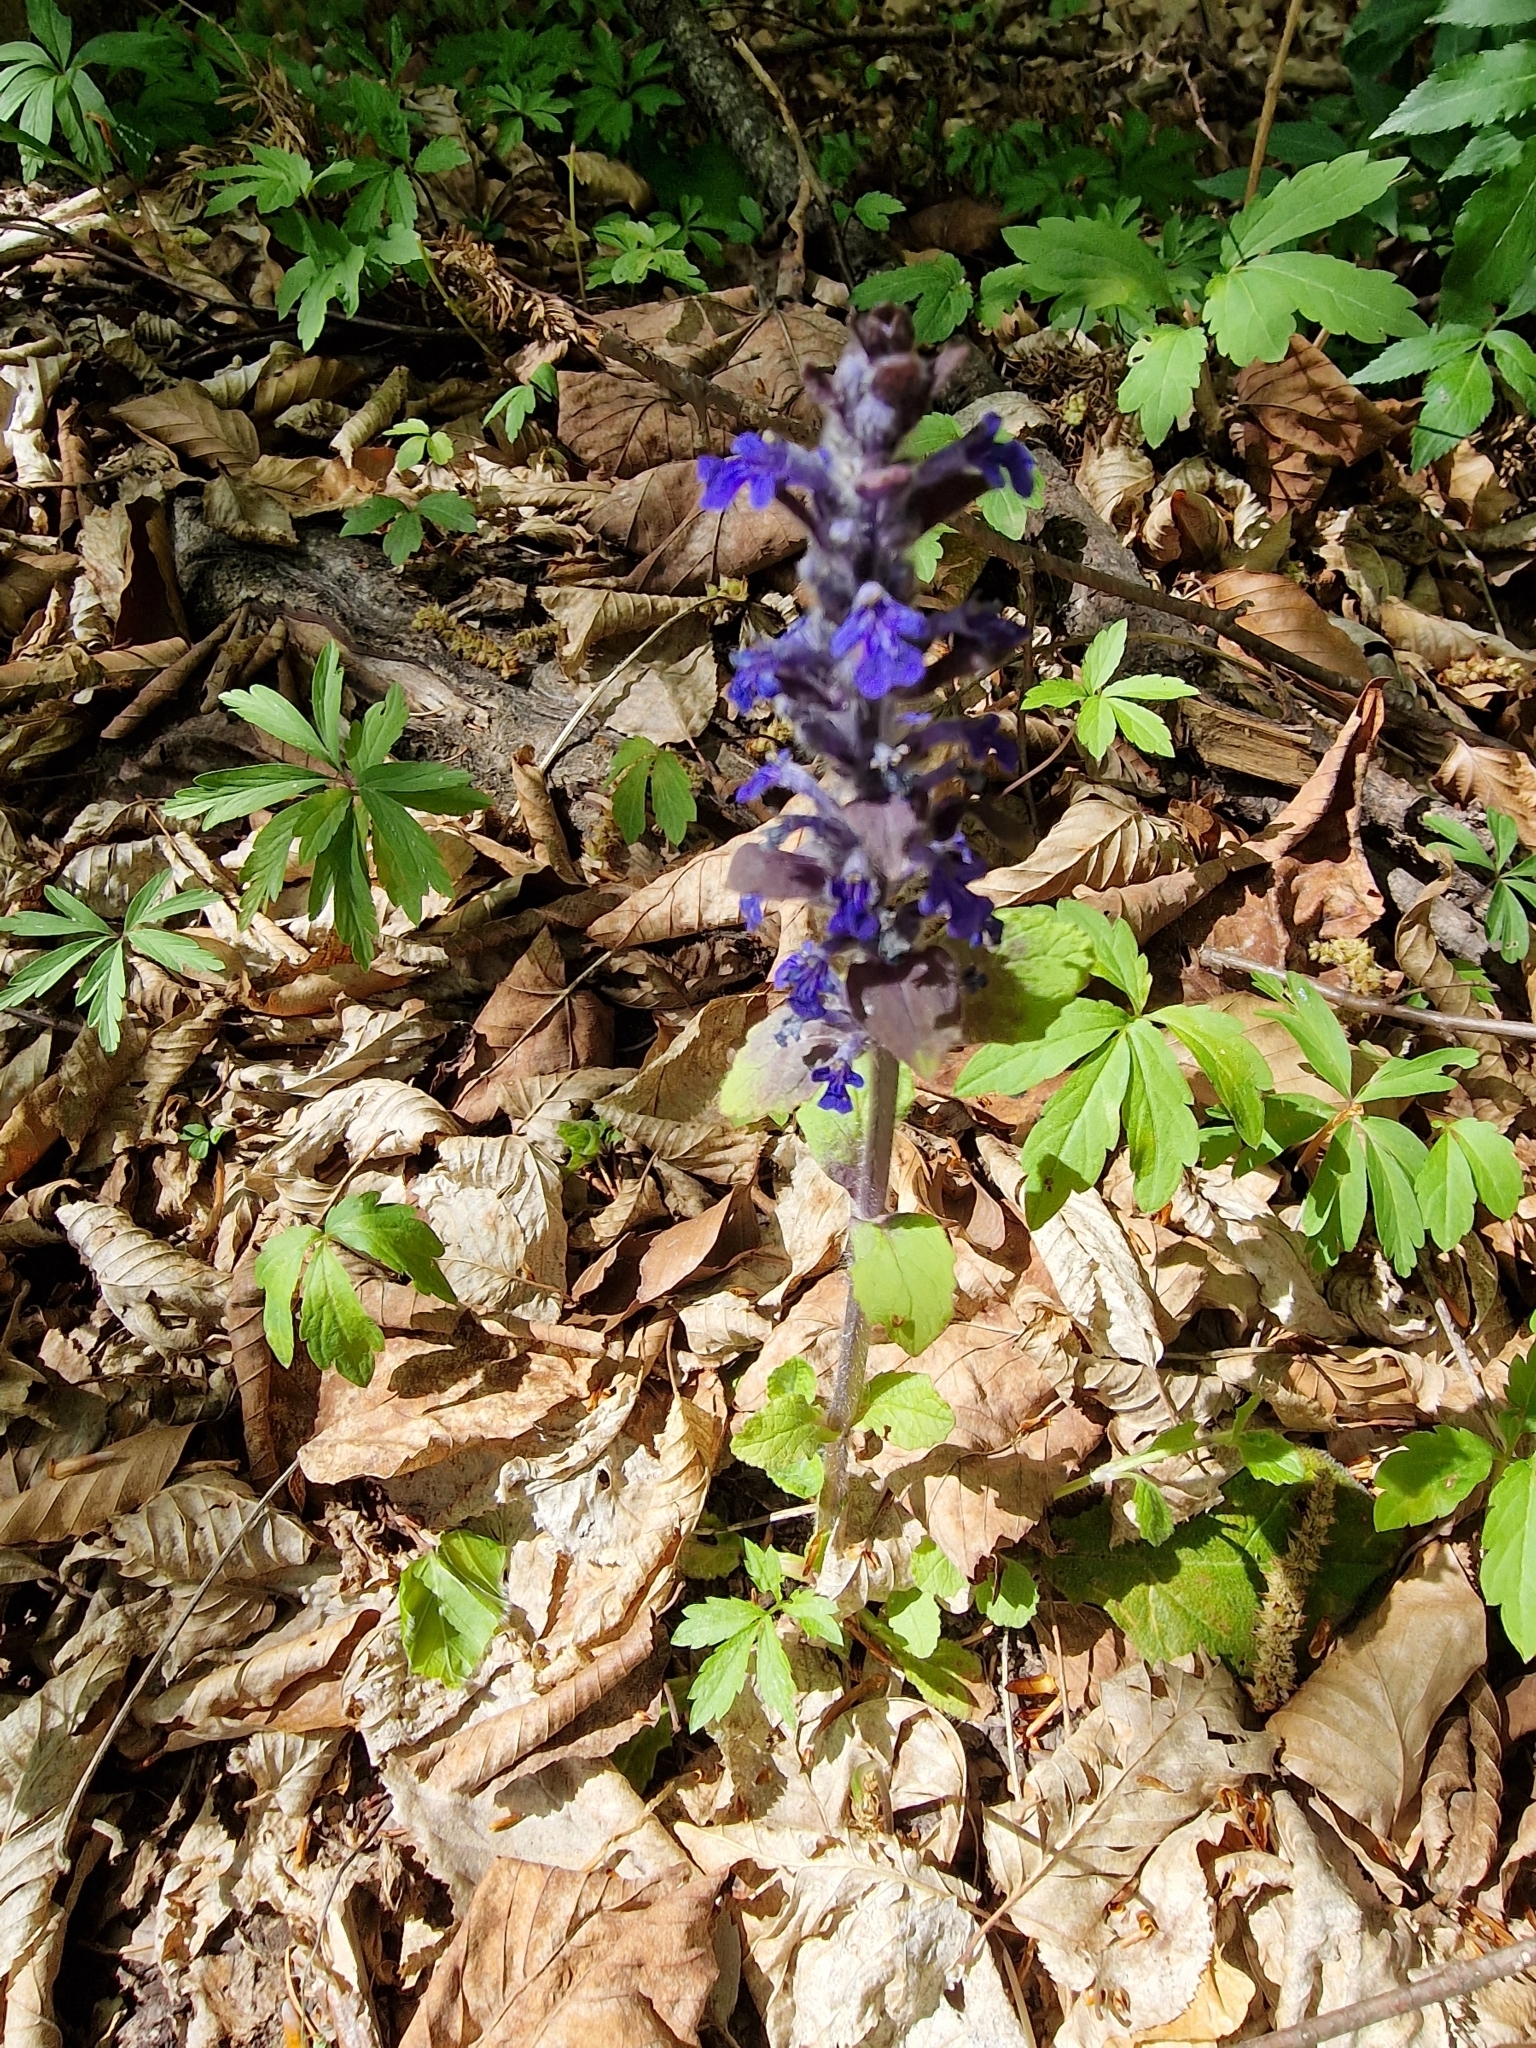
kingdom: Plantae
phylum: Tracheophyta
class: Magnoliopsida
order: Lamiales
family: Lamiaceae
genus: Ajuga
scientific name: Ajuga reptans
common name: Bugle
